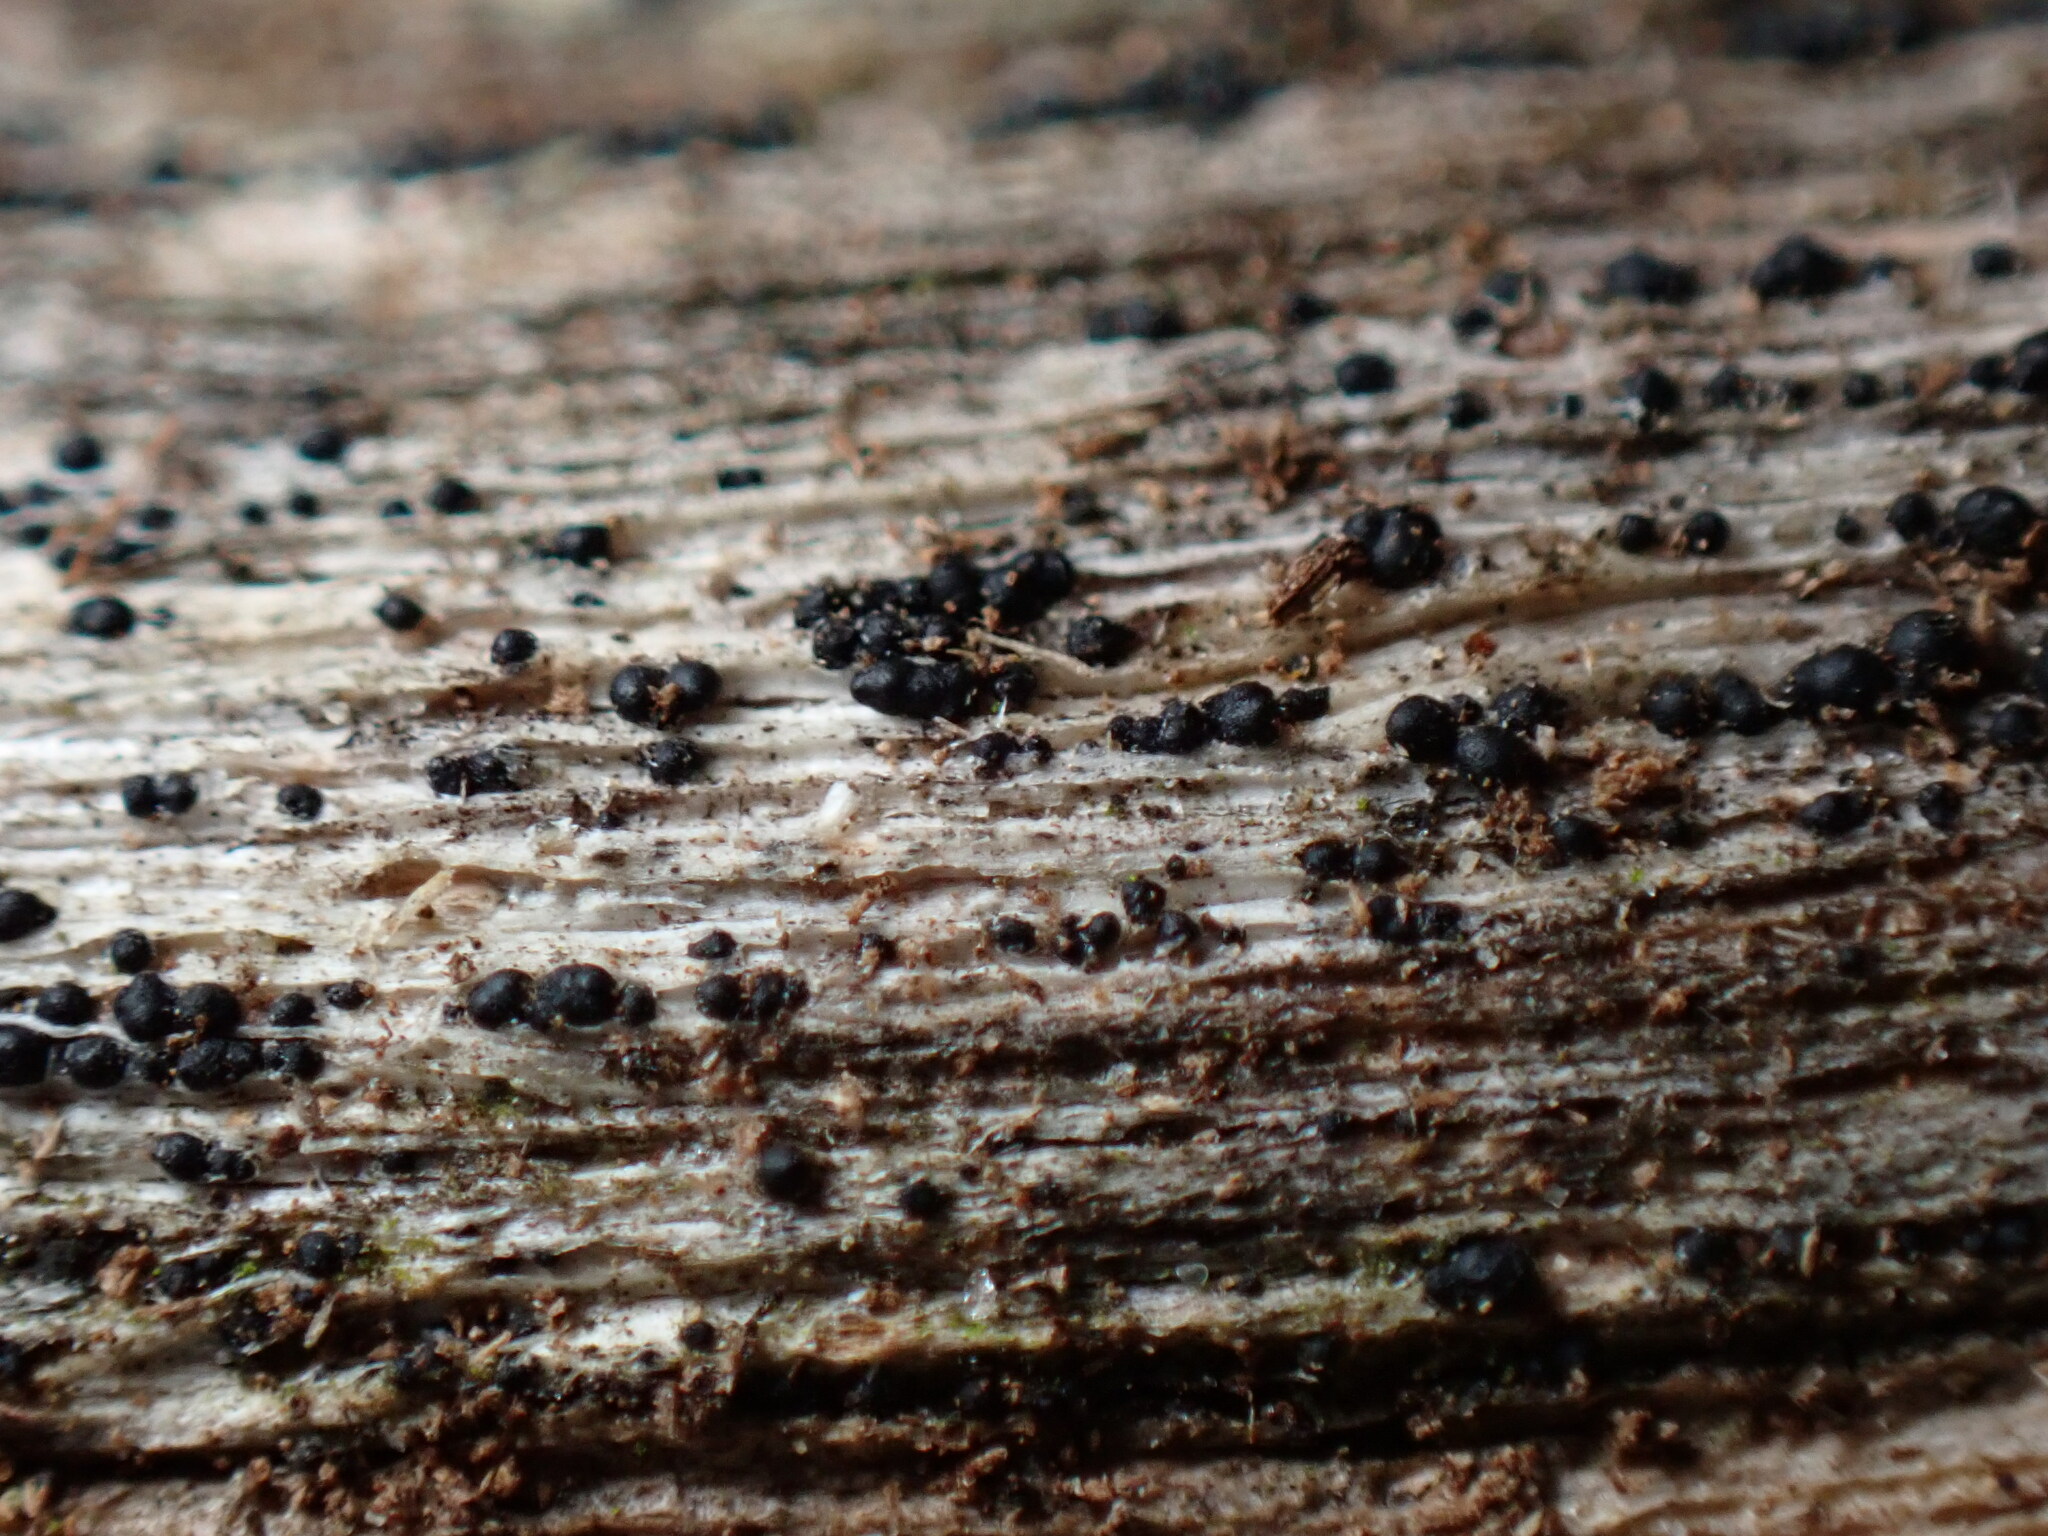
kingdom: Fungi
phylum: Ascomycota
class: Dothideomycetes
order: Pleosporales
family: Macrodiplodiopsidaceae
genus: Macrodiplodiopsis
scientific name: Macrodiplodiopsis desmazieri
